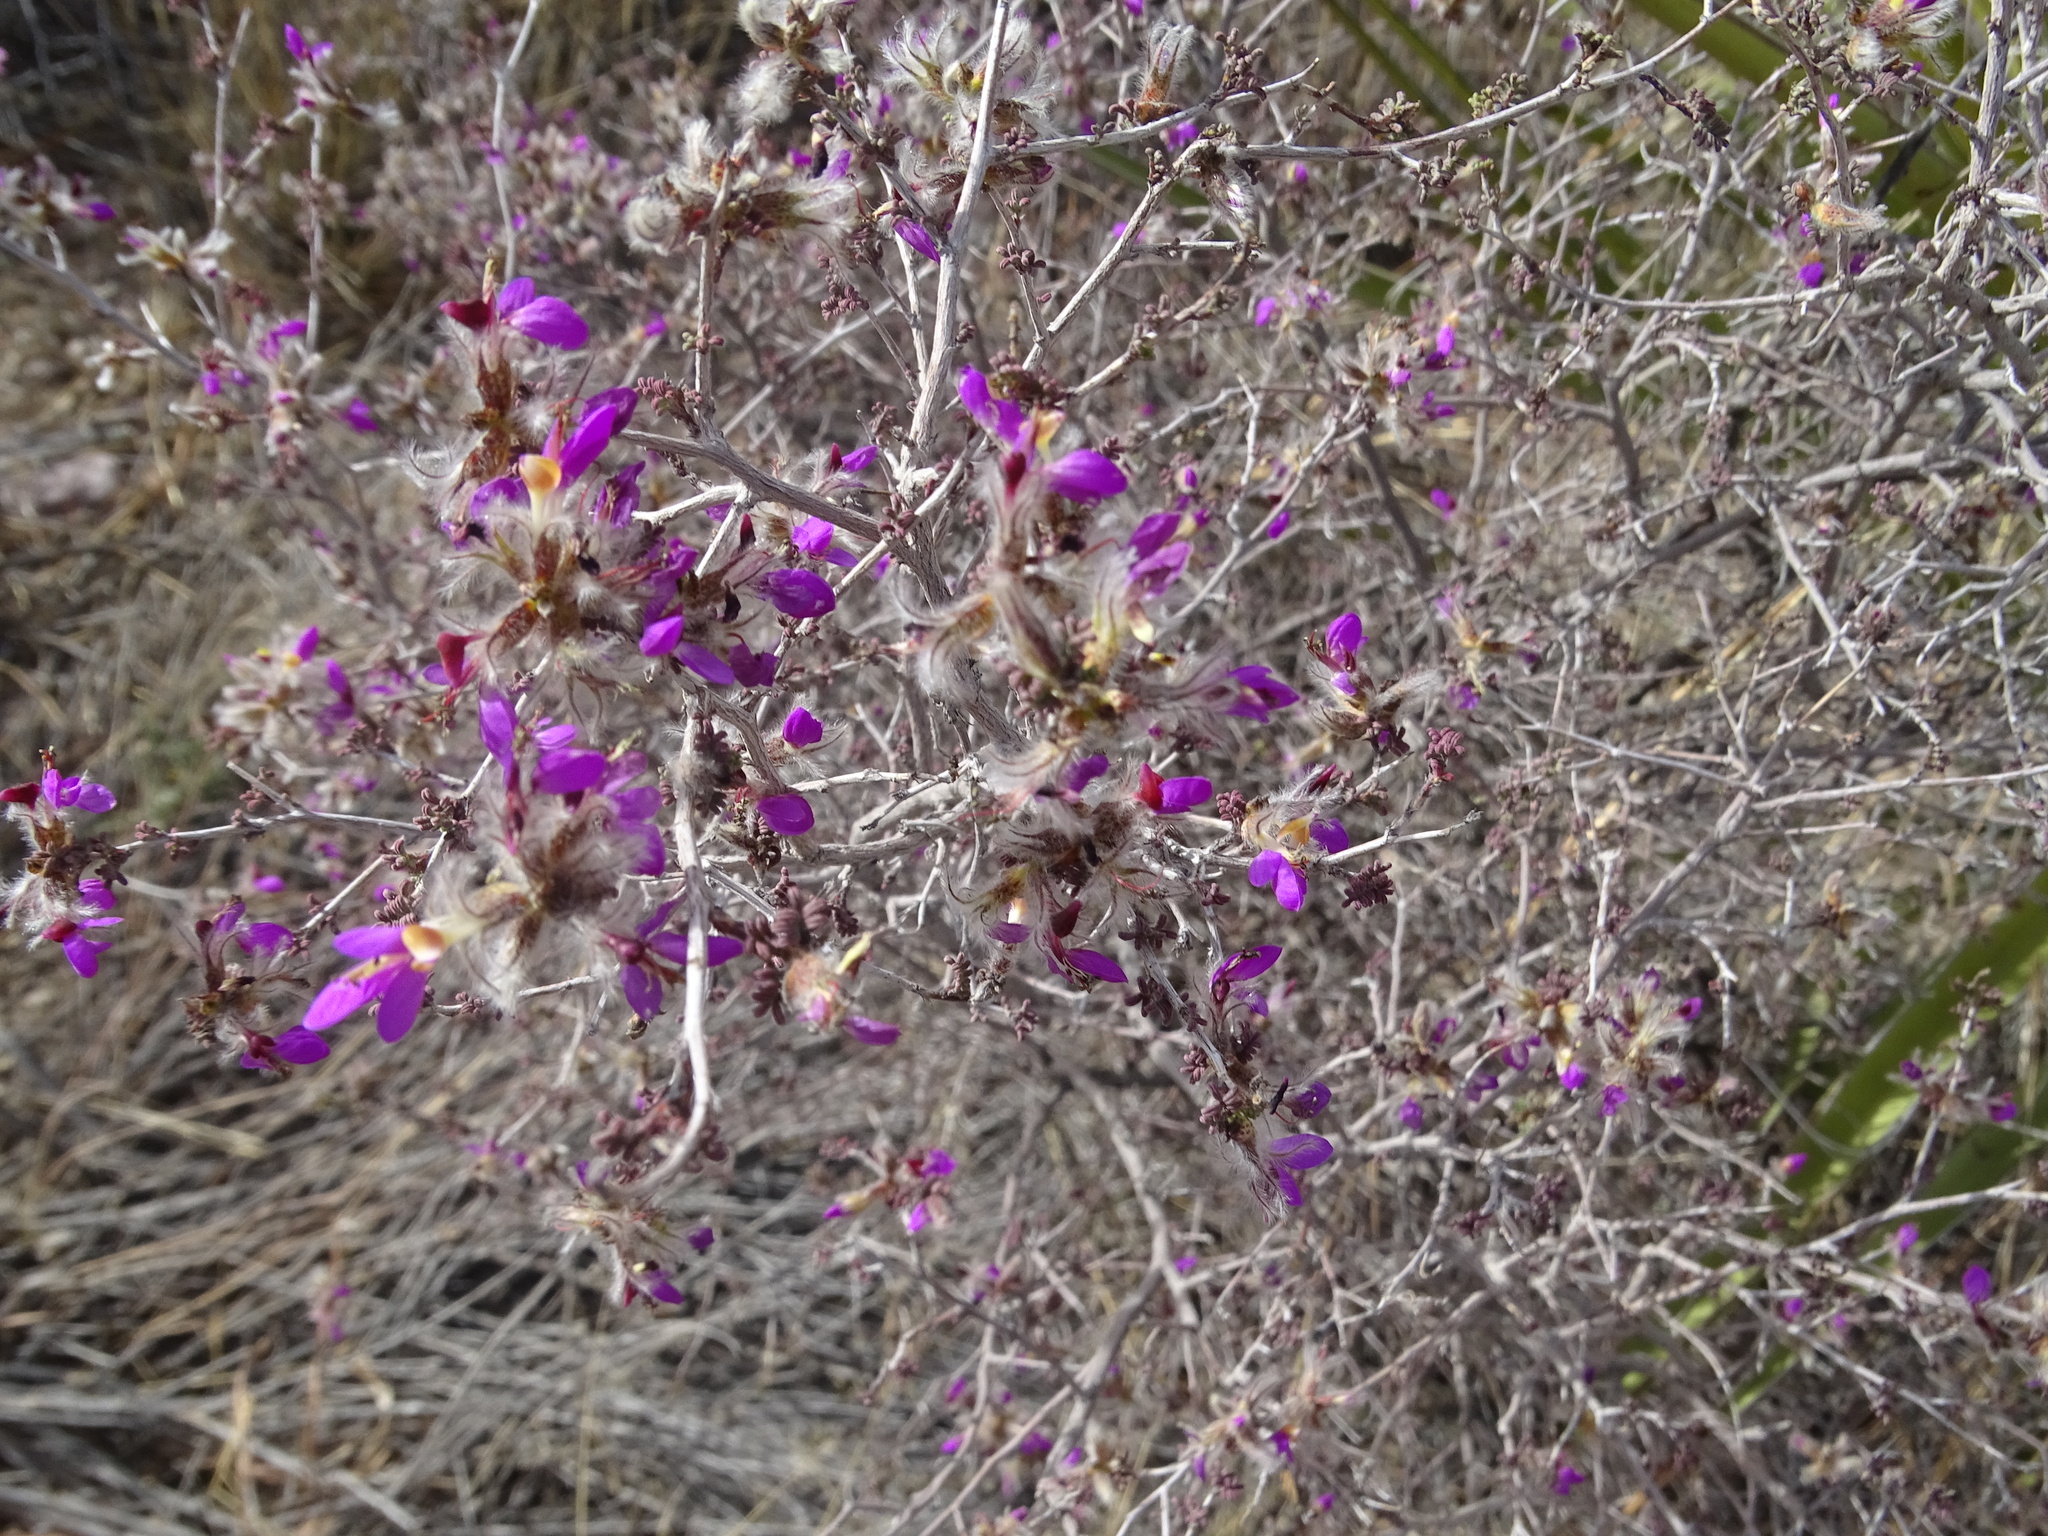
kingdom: Plantae
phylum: Tracheophyta
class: Magnoliopsida
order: Fabales
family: Fabaceae
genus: Dalea
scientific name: Dalea formosa
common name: Feather-plume dalea
